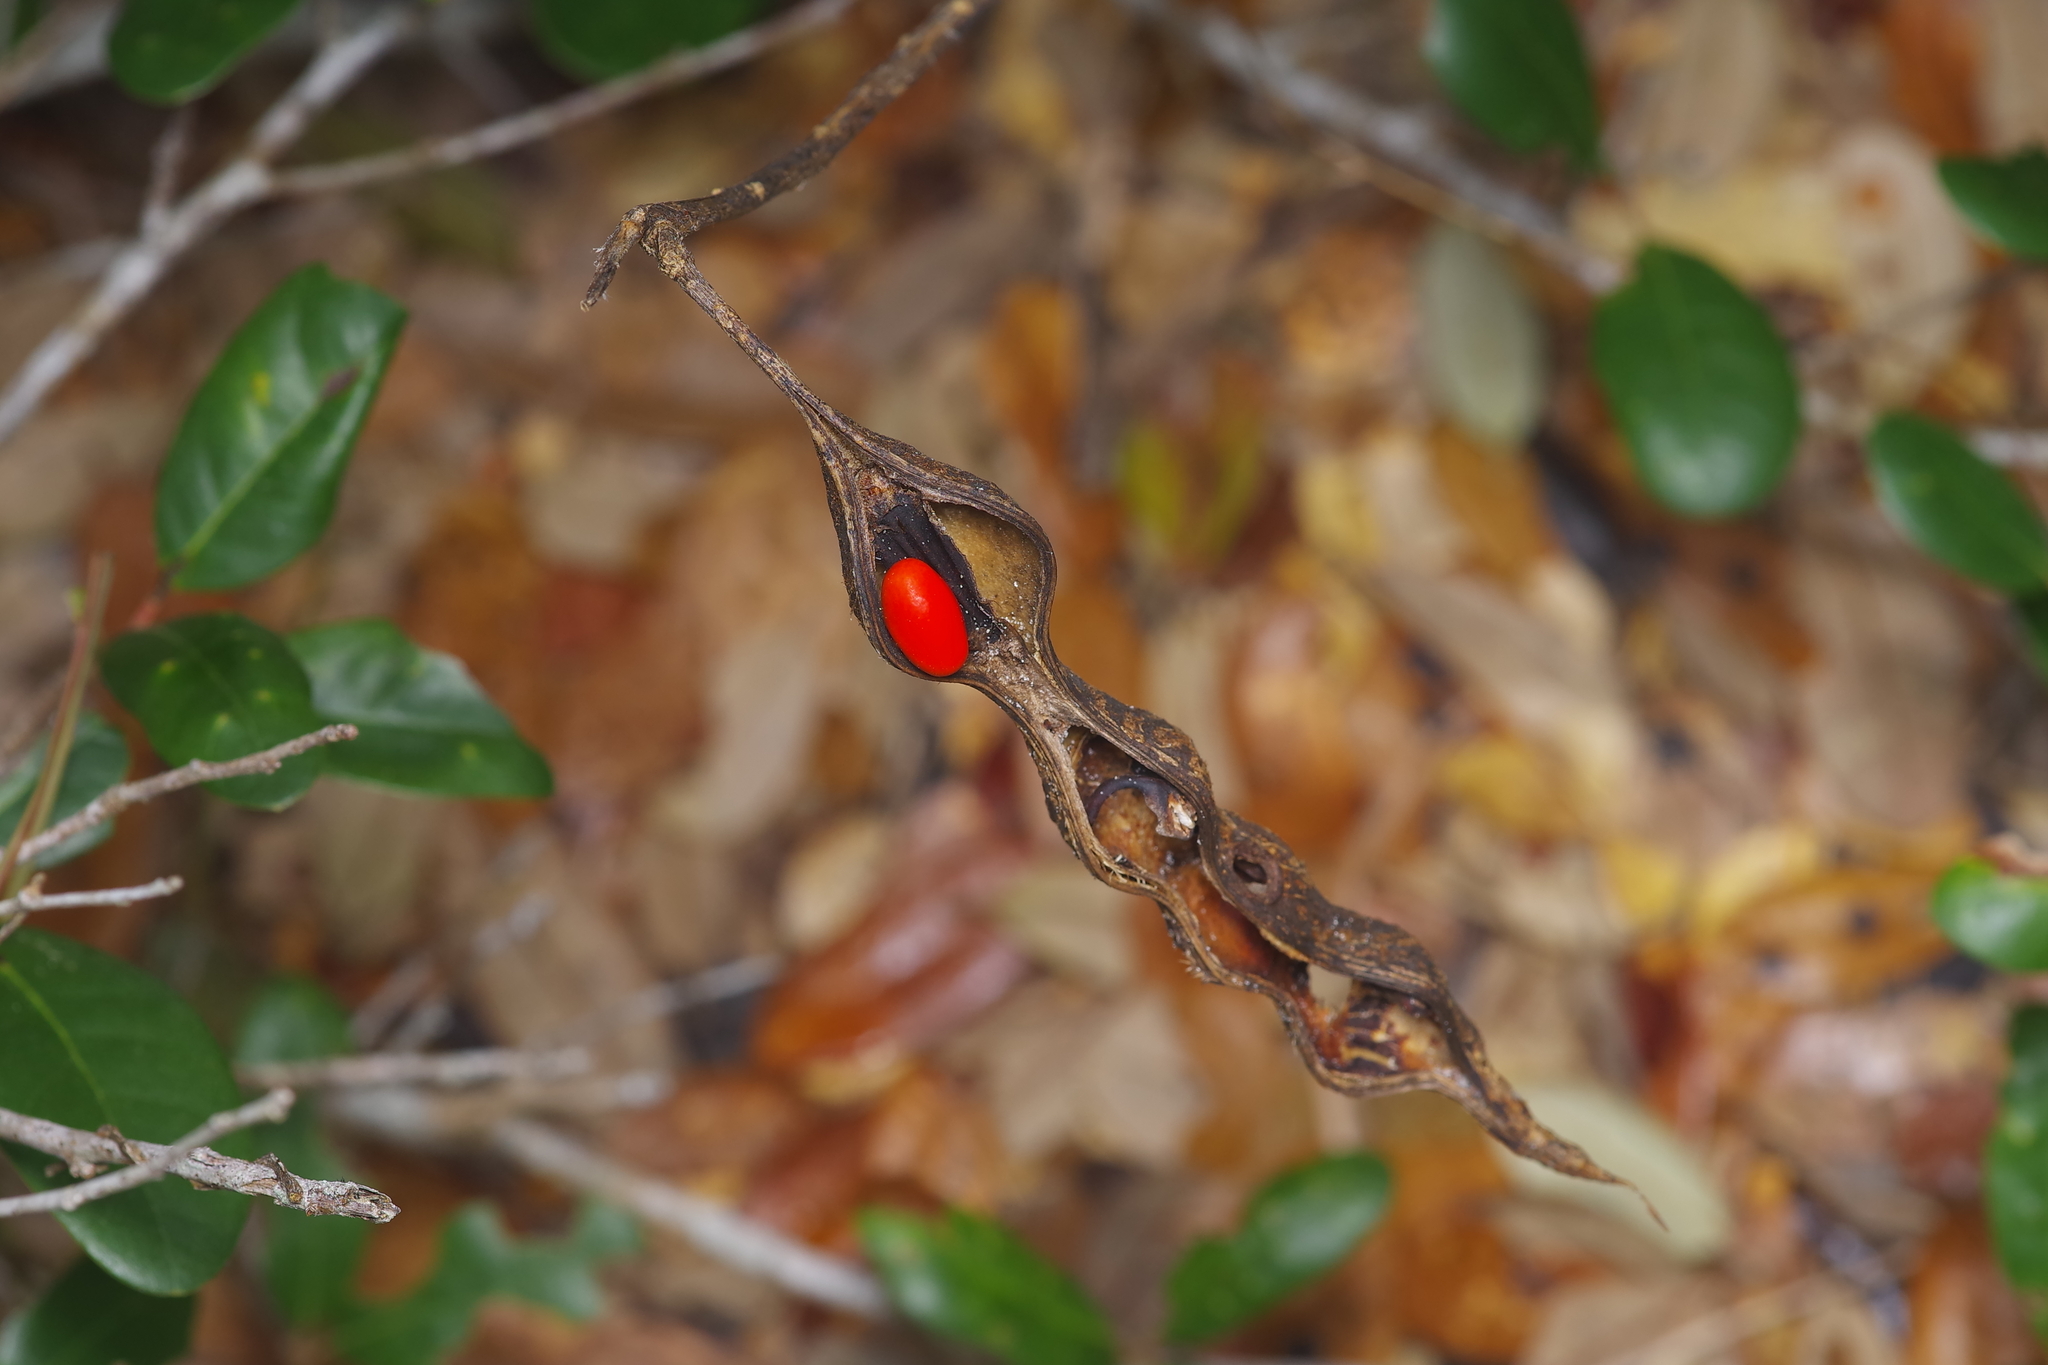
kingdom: Plantae
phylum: Tracheophyta
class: Magnoliopsida
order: Fabales
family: Fabaceae
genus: Erythrina
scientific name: Erythrina herbacea
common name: Coral-bean
